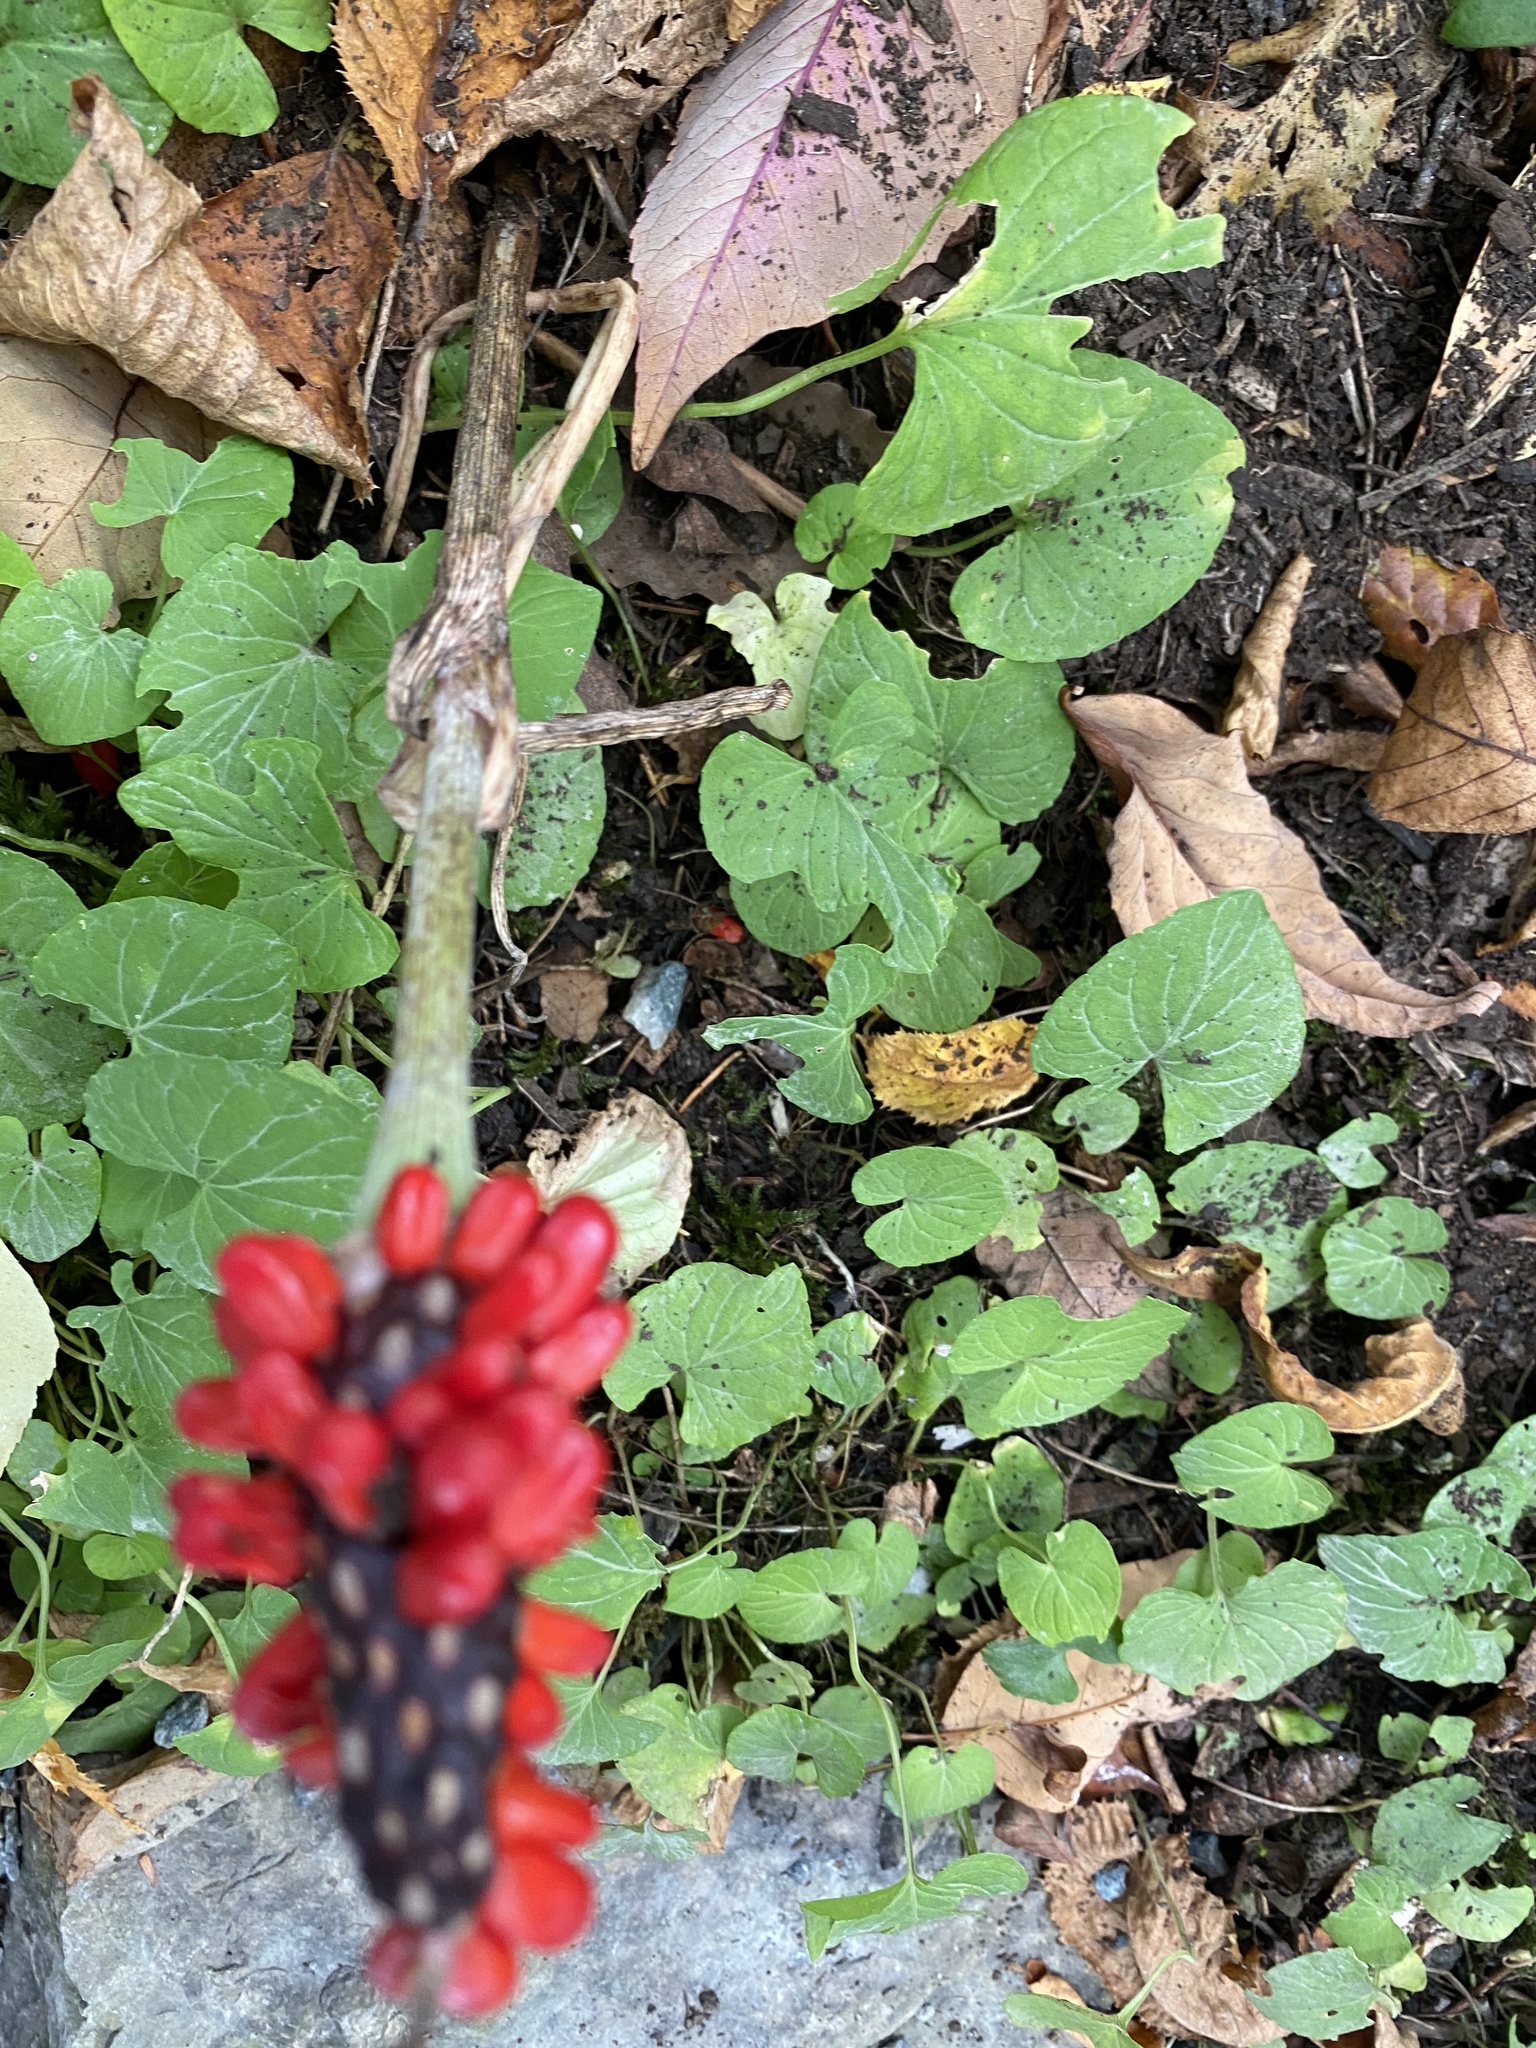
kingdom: Plantae
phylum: Tracheophyta
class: Liliopsida
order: Alismatales
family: Araceae
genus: Arisaema
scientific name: Arisaema triphyllum
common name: Jack-in-the-pulpit
